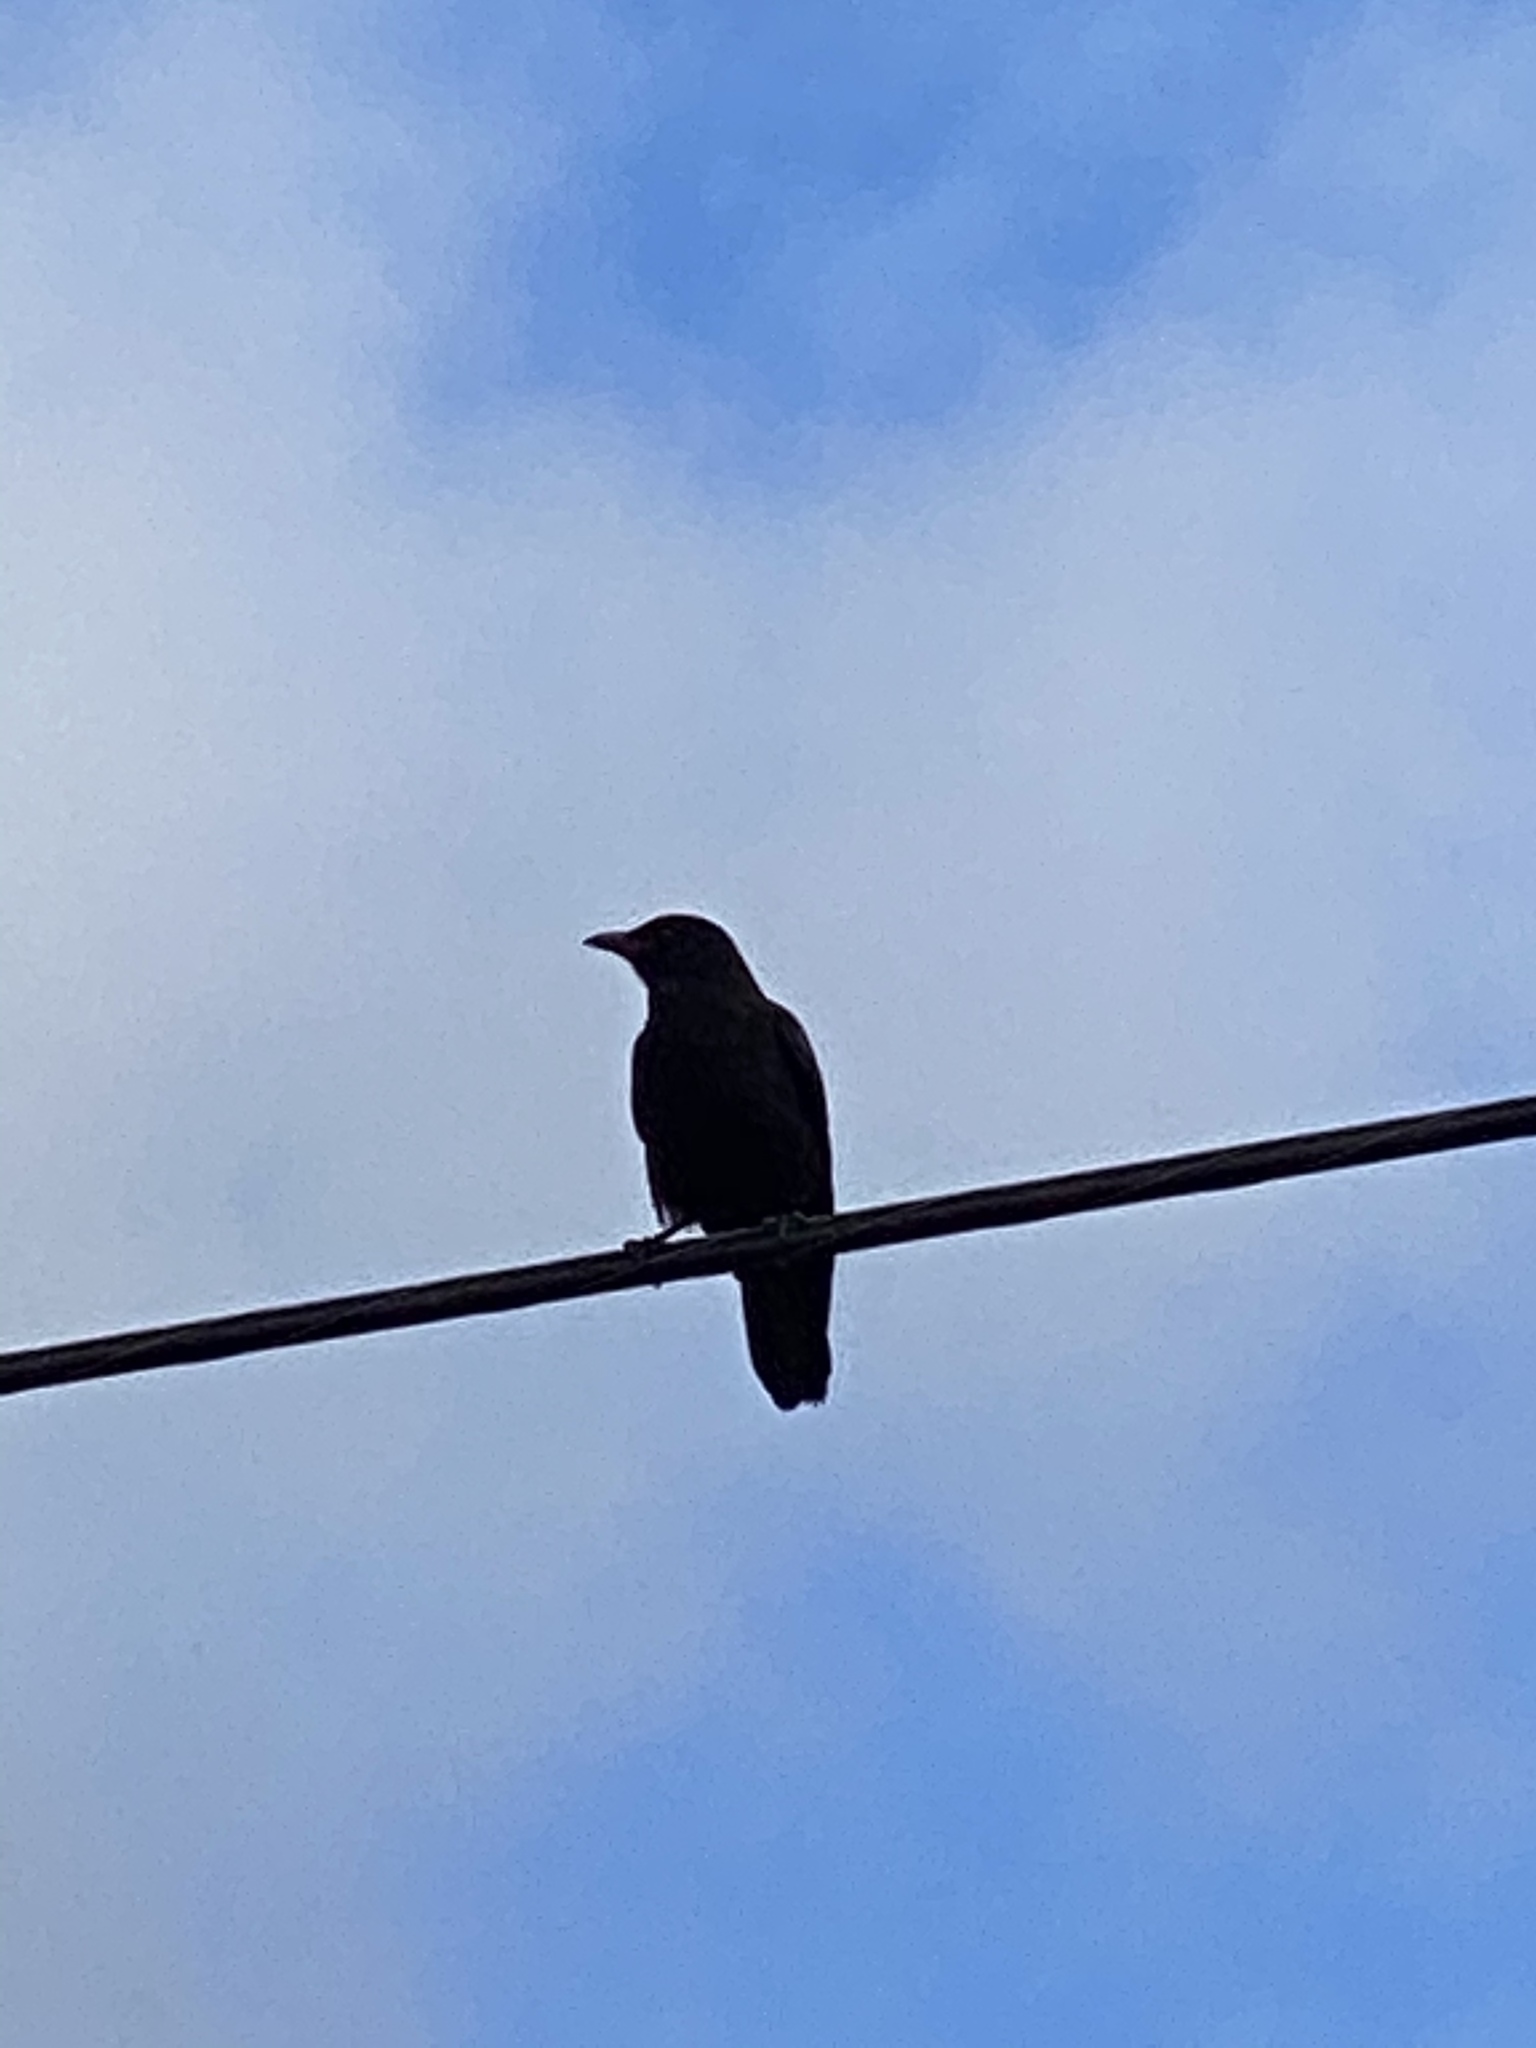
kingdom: Animalia
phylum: Chordata
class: Aves
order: Passeriformes
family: Corvidae
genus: Corvus
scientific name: Corvus brachyrhynchos
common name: American crow
